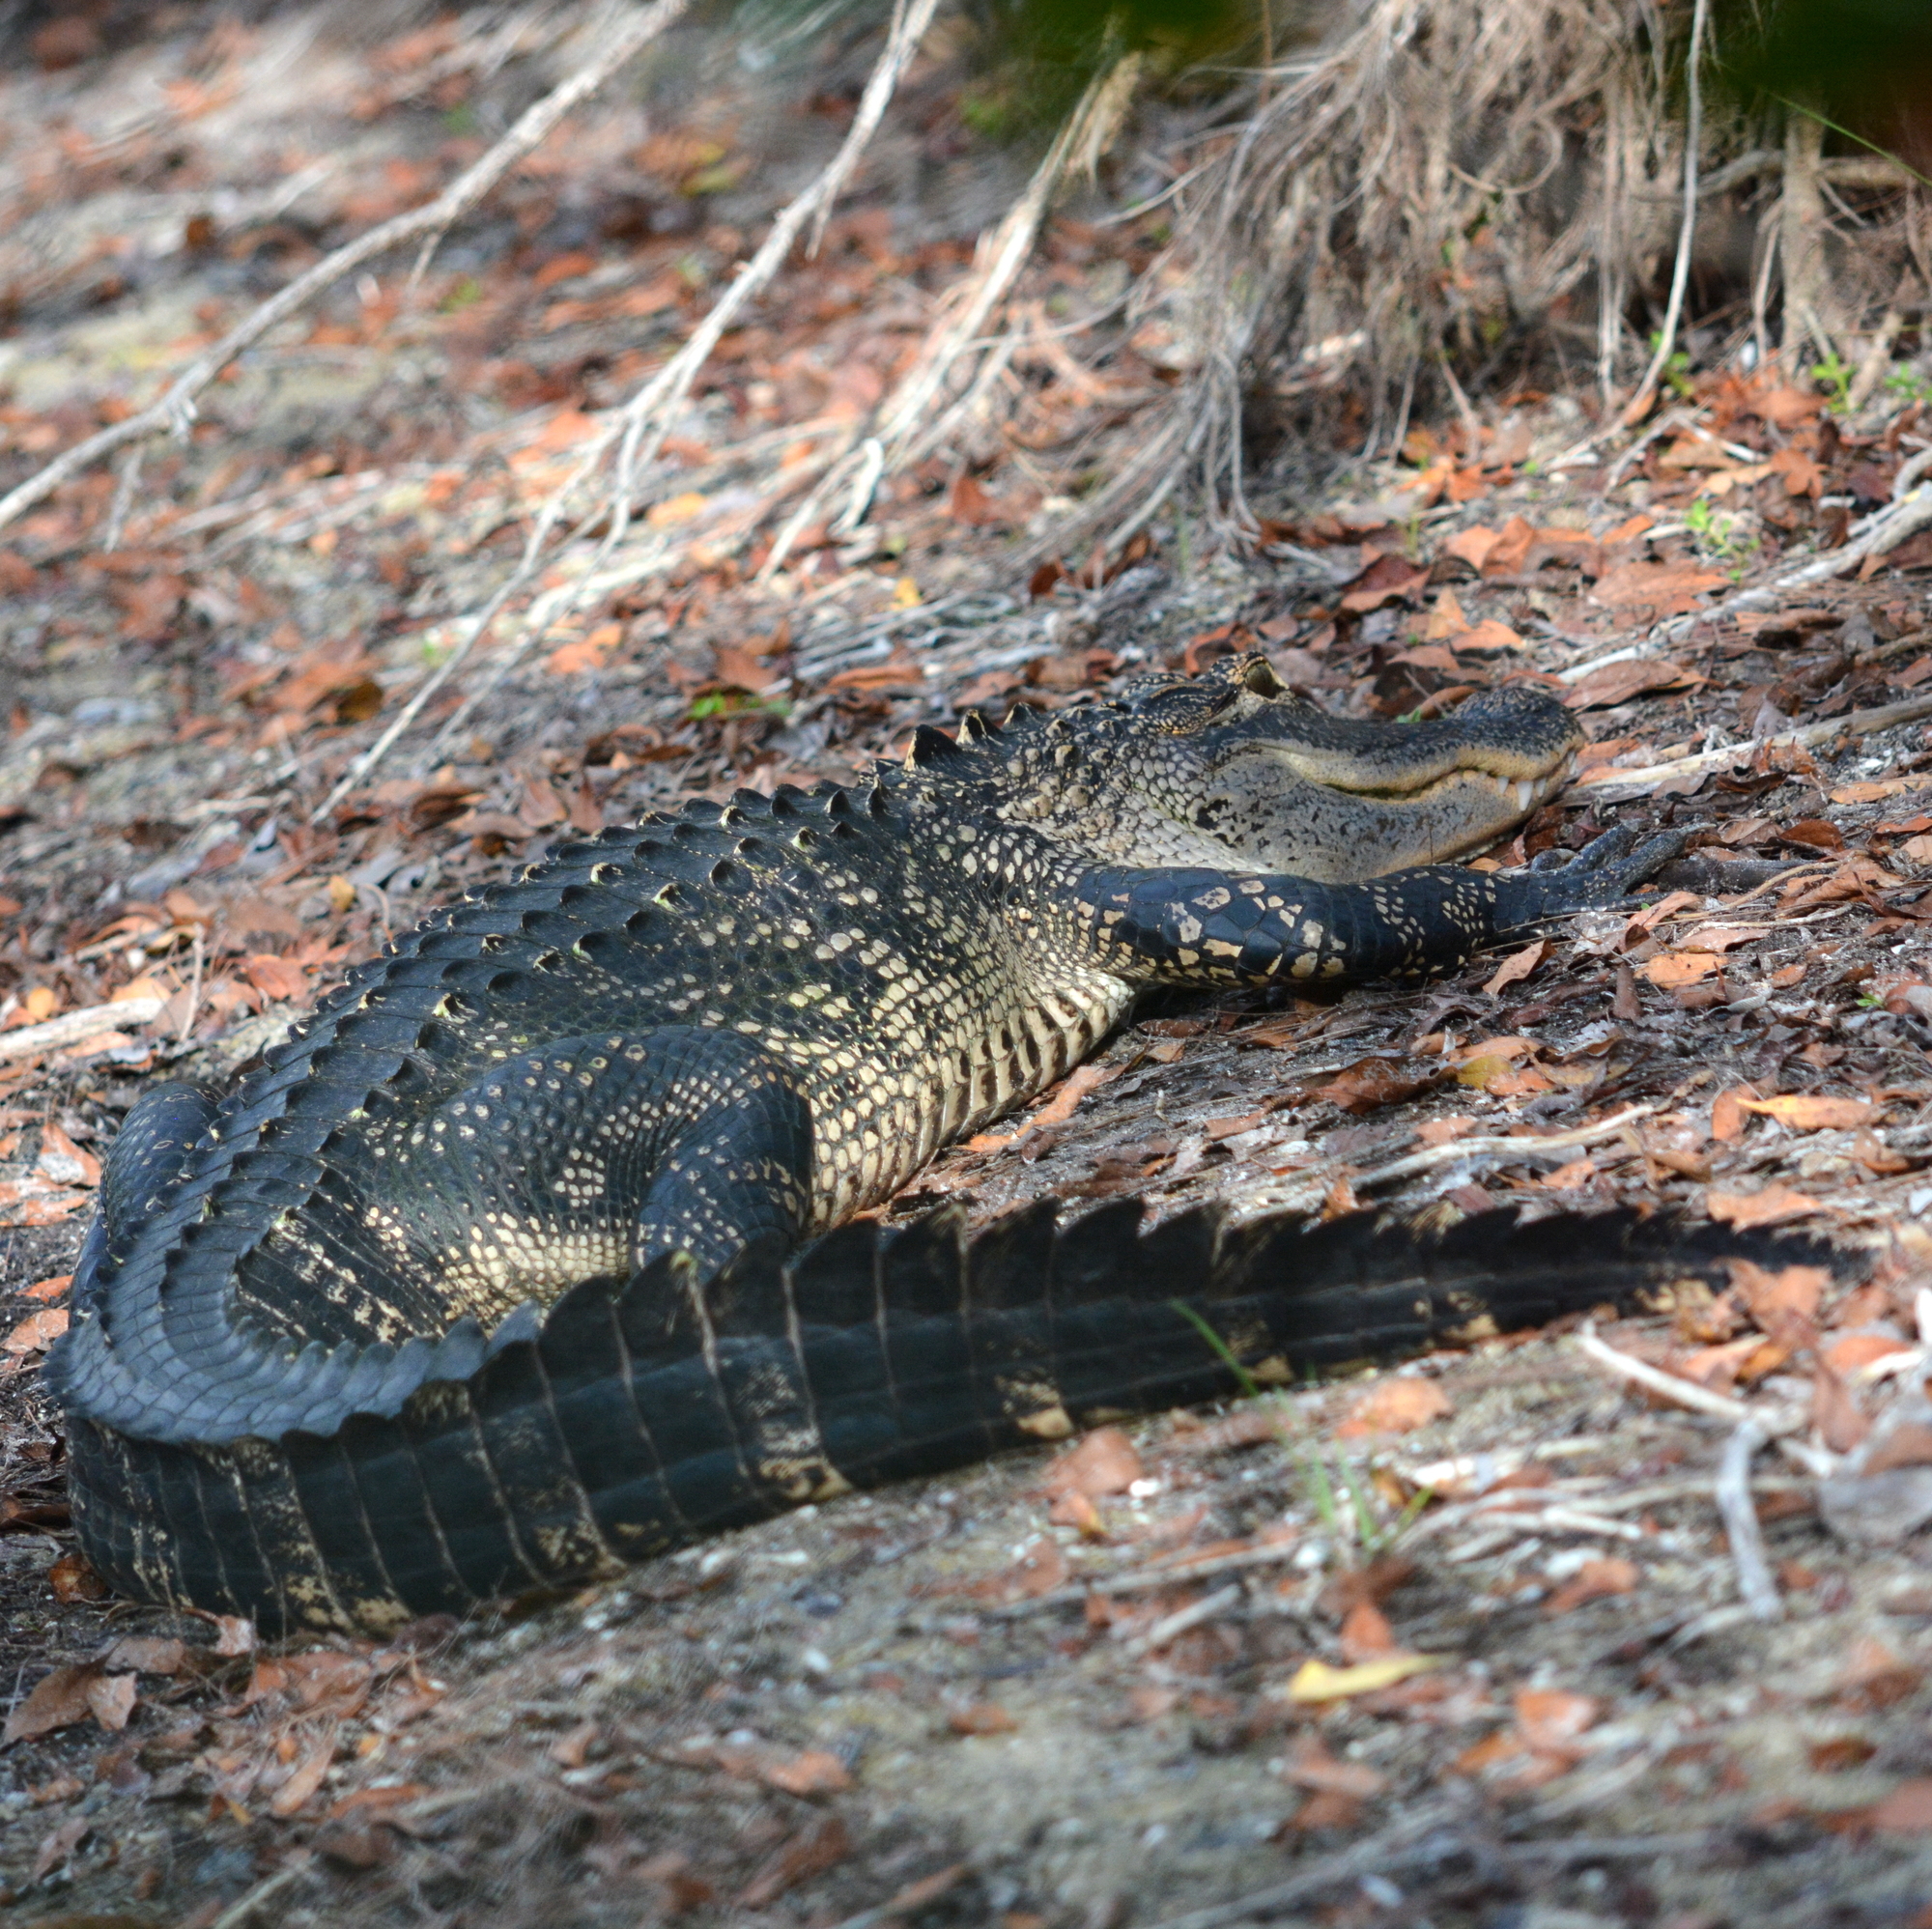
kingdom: Animalia
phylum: Chordata
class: Crocodylia
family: Alligatoridae
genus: Alligator
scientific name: Alligator mississippiensis
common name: American alligator
